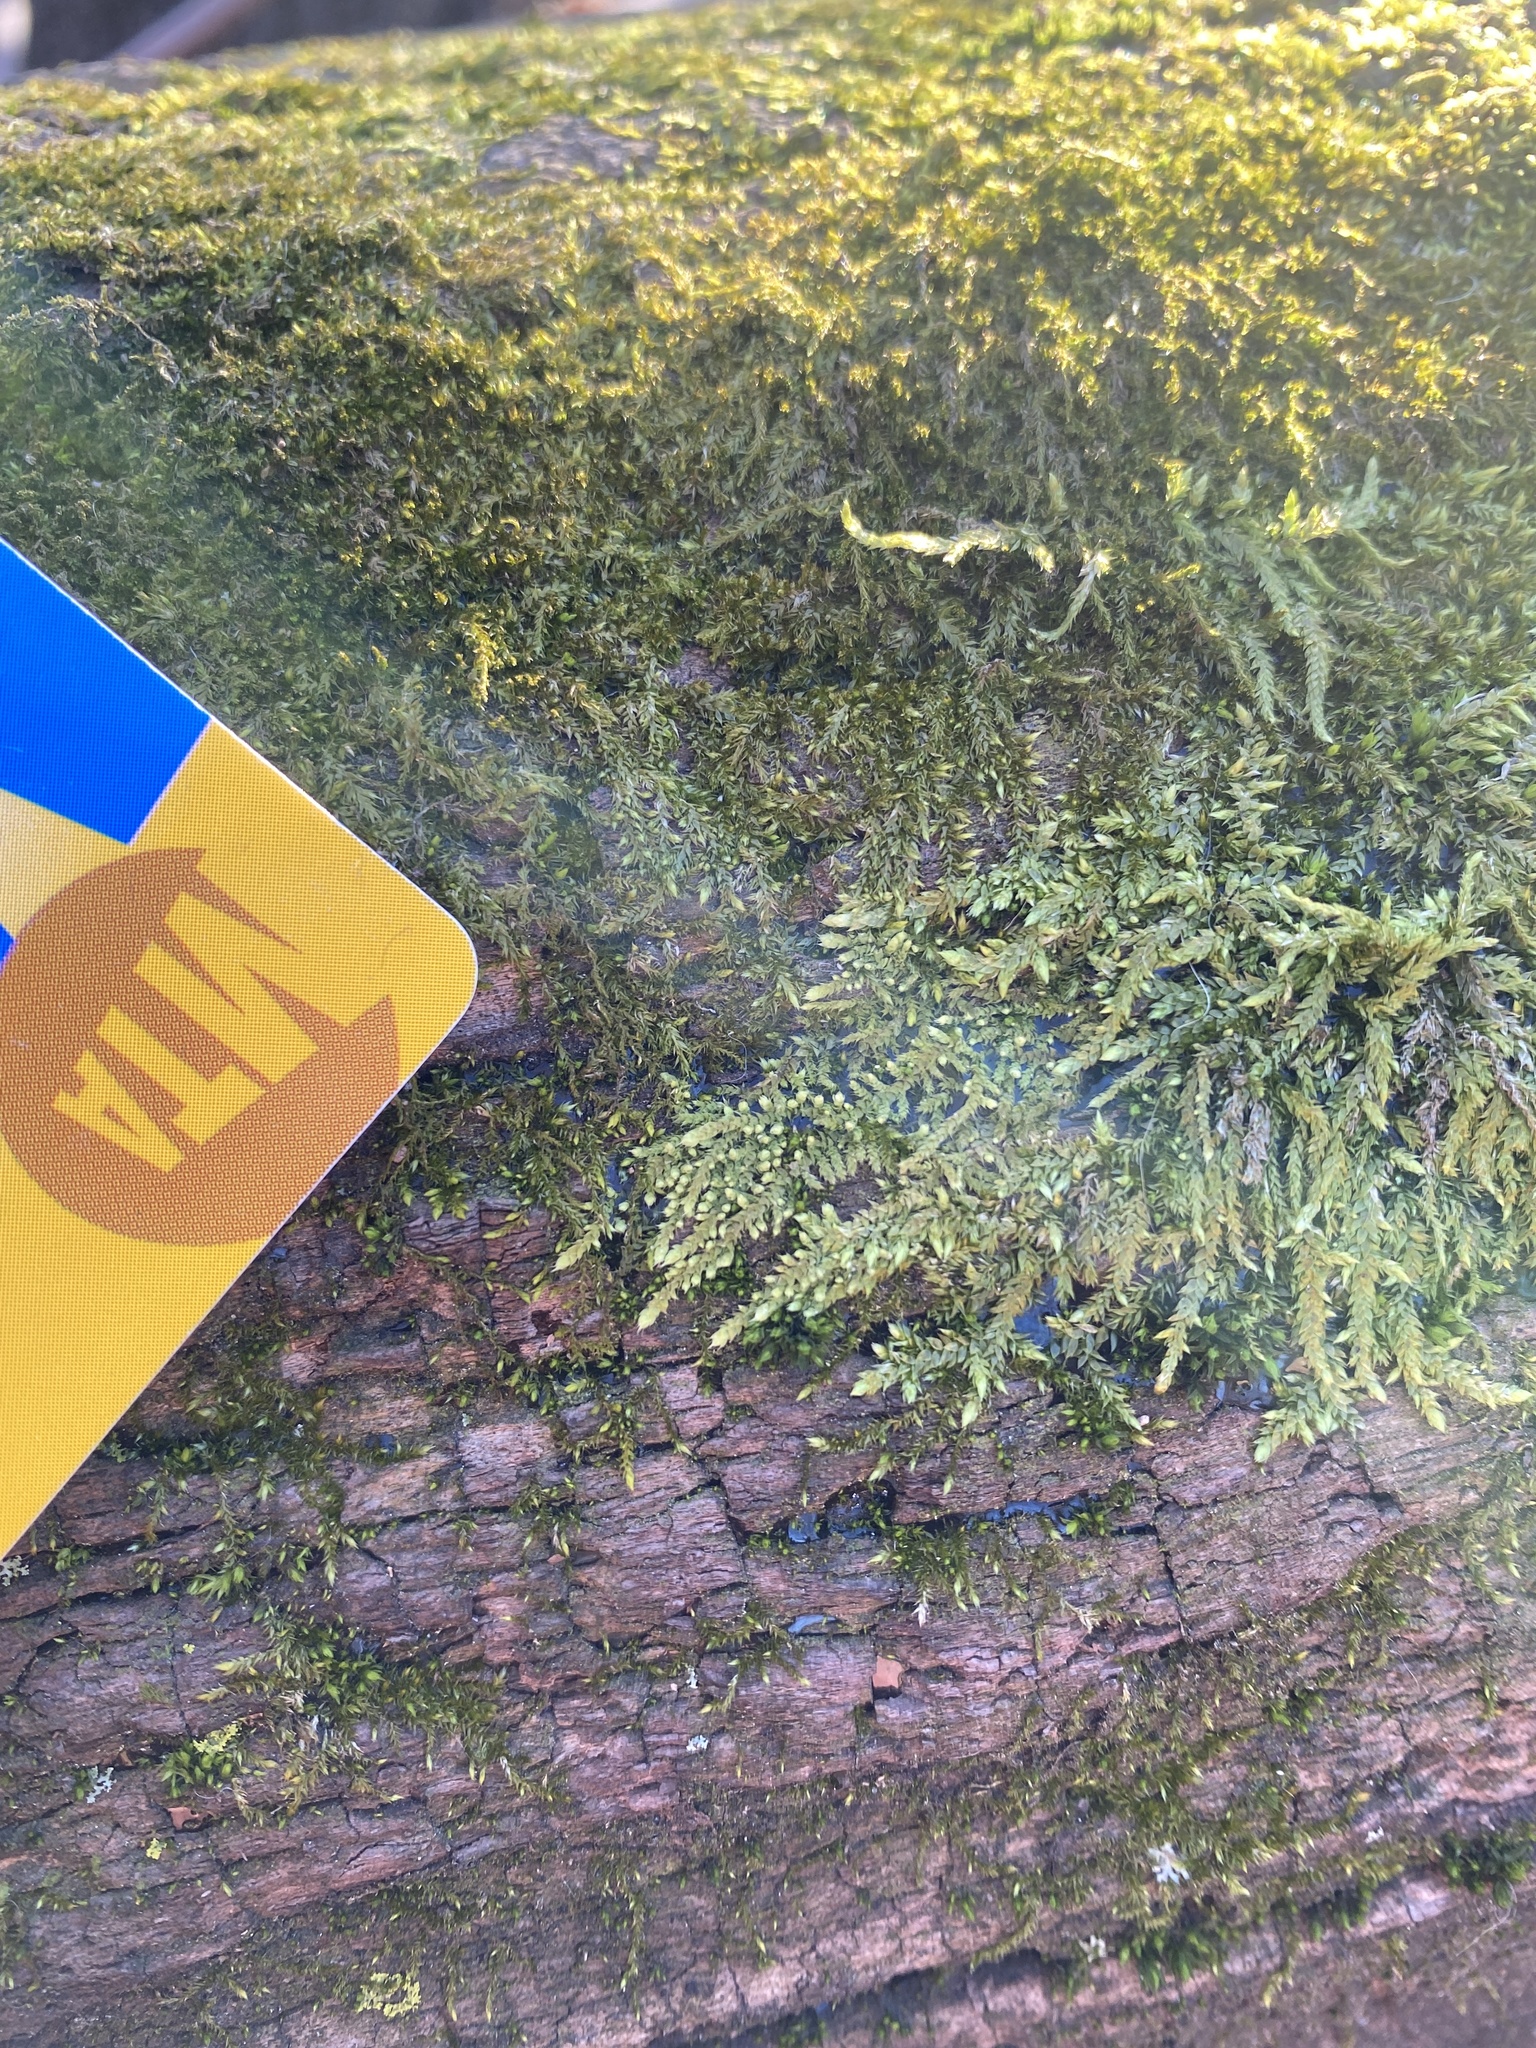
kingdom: Plantae
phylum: Bryophyta
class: Bryopsida
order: Hypnales
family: Theliaceae
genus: Thelia
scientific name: Thelia asprella
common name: Rough thelia
